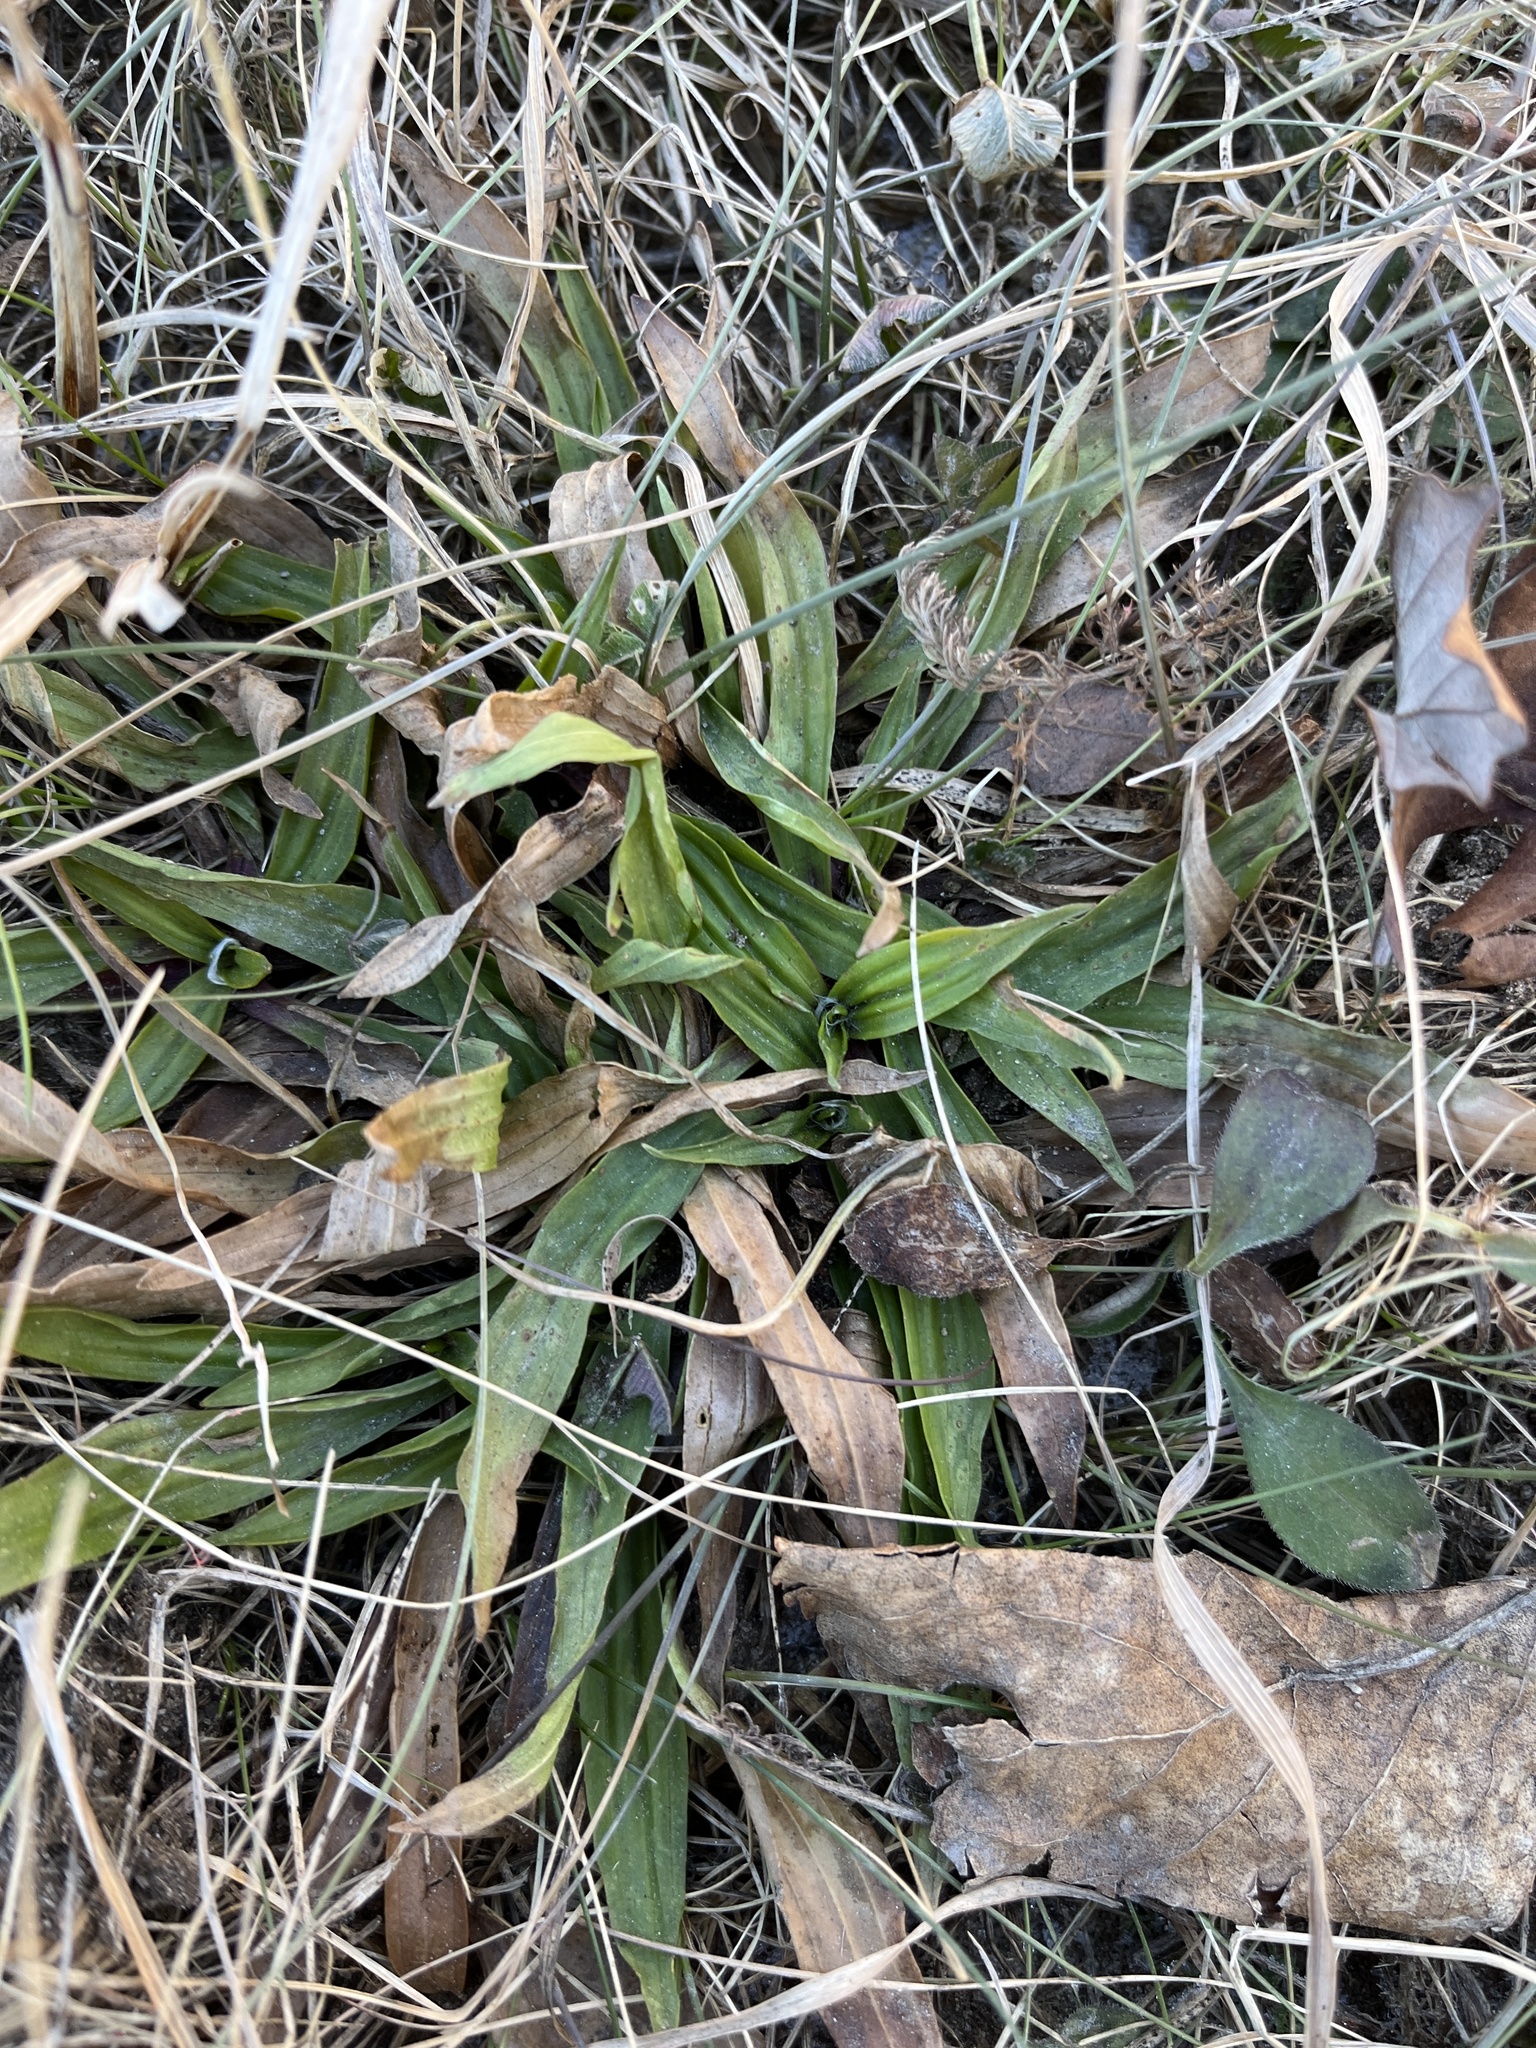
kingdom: Plantae
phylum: Tracheophyta
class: Magnoliopsida
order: Lamiales
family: Plantaginaceae
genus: Plantago
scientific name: Plantago lanceolata
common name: Ribwort plantain
